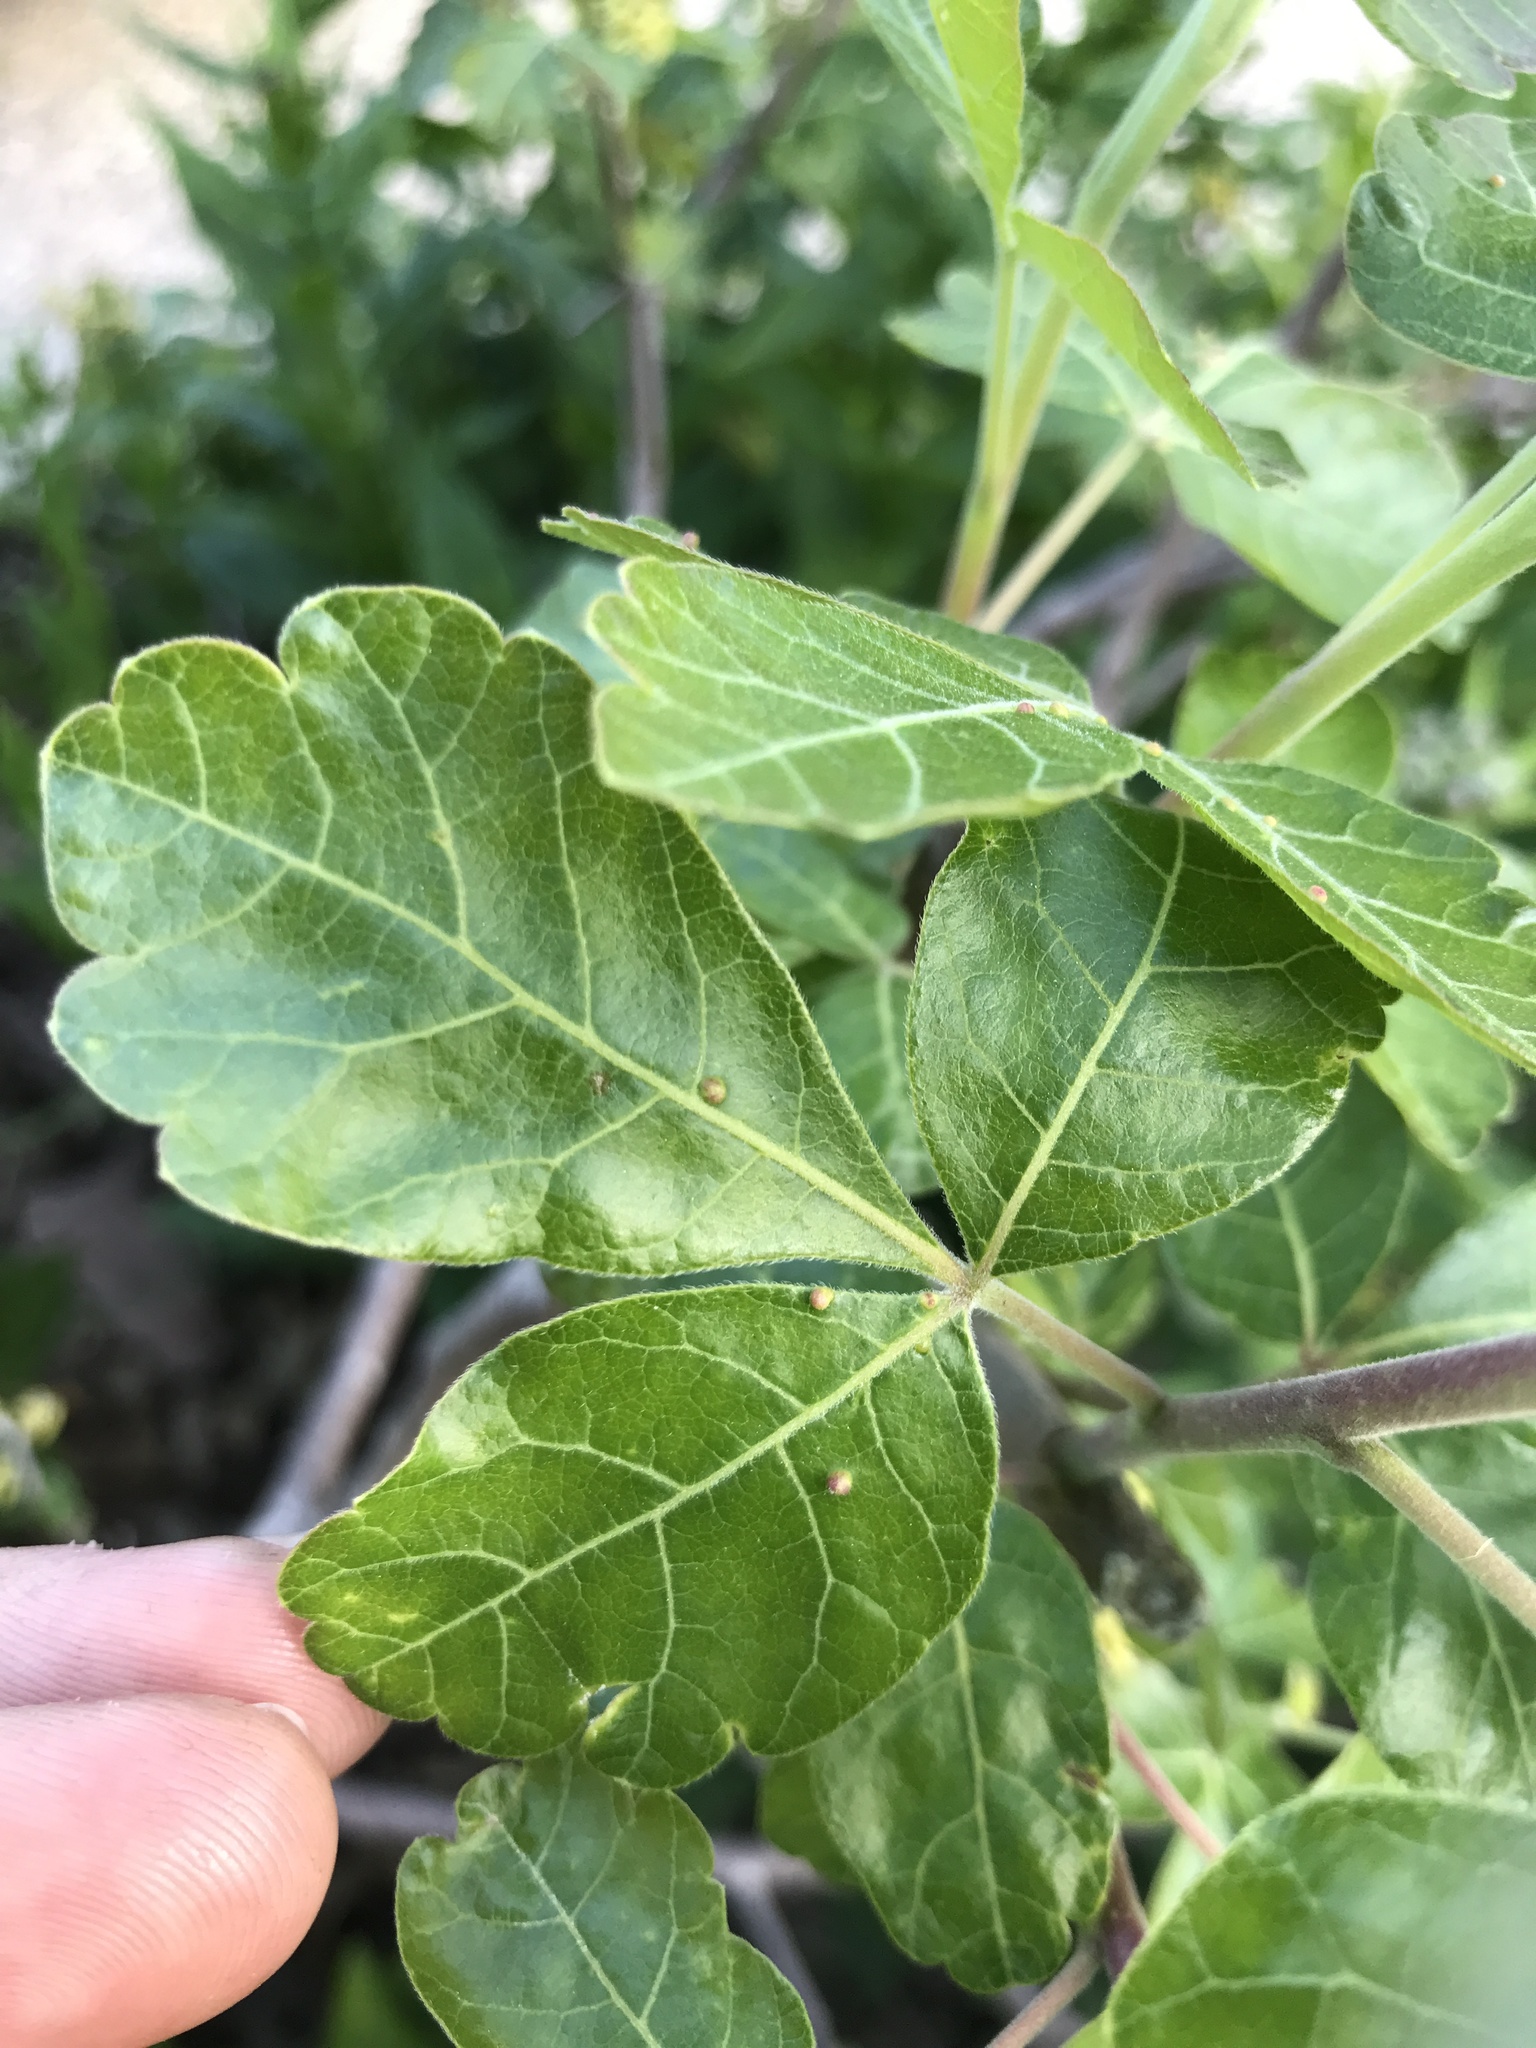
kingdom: Animalia
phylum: Arthropoda
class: Arachnida
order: Trombidiformes
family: Eriophyidae
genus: Aculops
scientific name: Aculops
